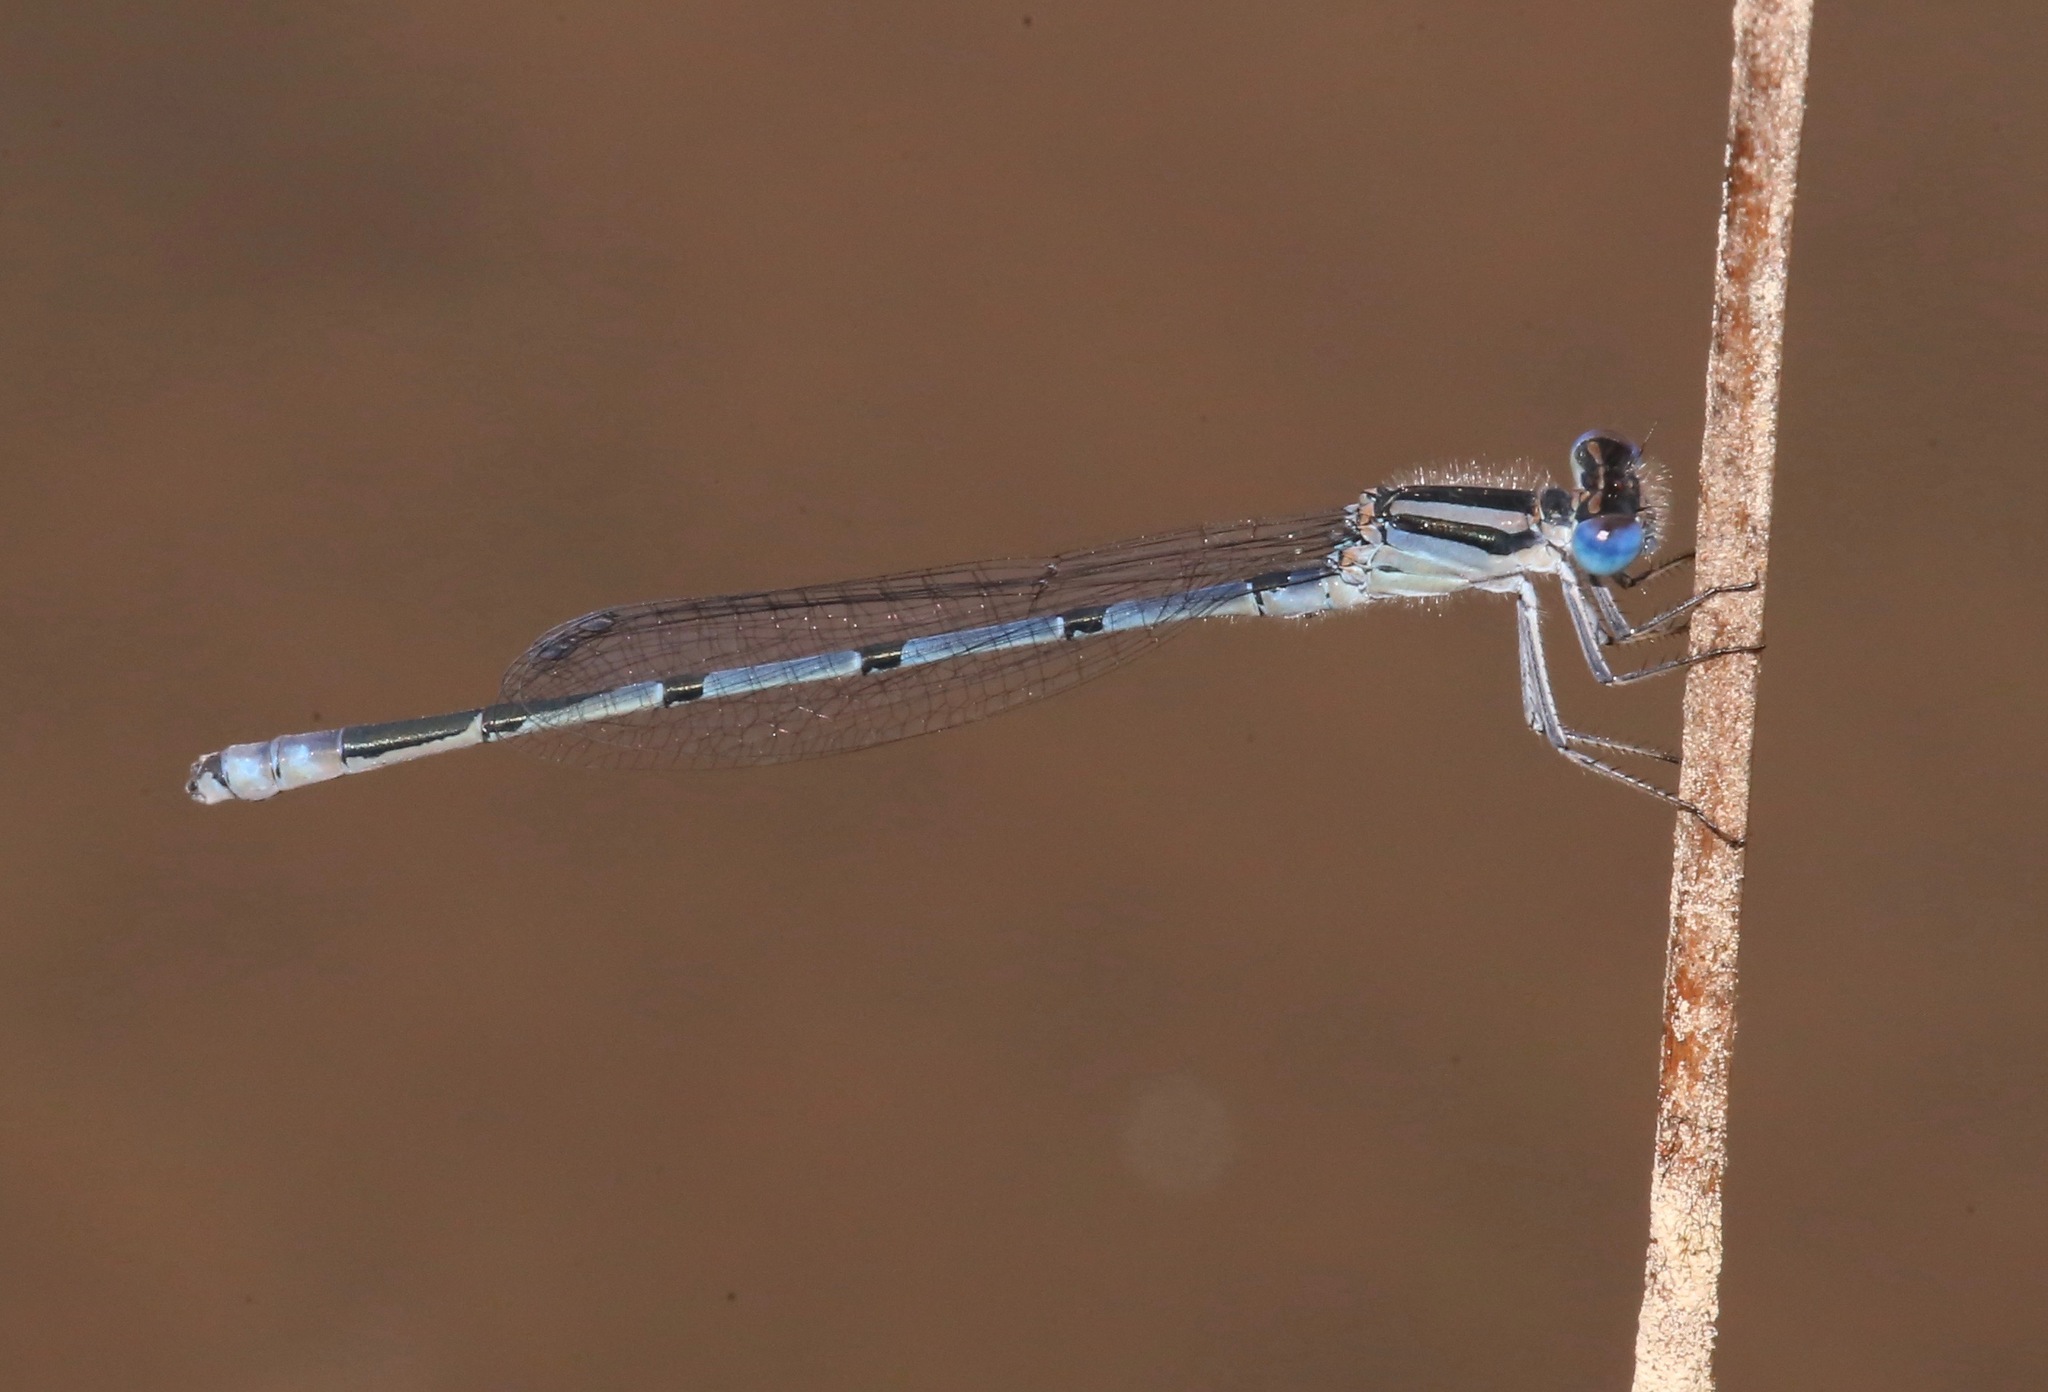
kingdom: Animalia
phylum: Arthropoda
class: Insecta
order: Odonata
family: Coenagrionidae
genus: Enallagma
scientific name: Enallagma doubledayi
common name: Atlantic bluet
